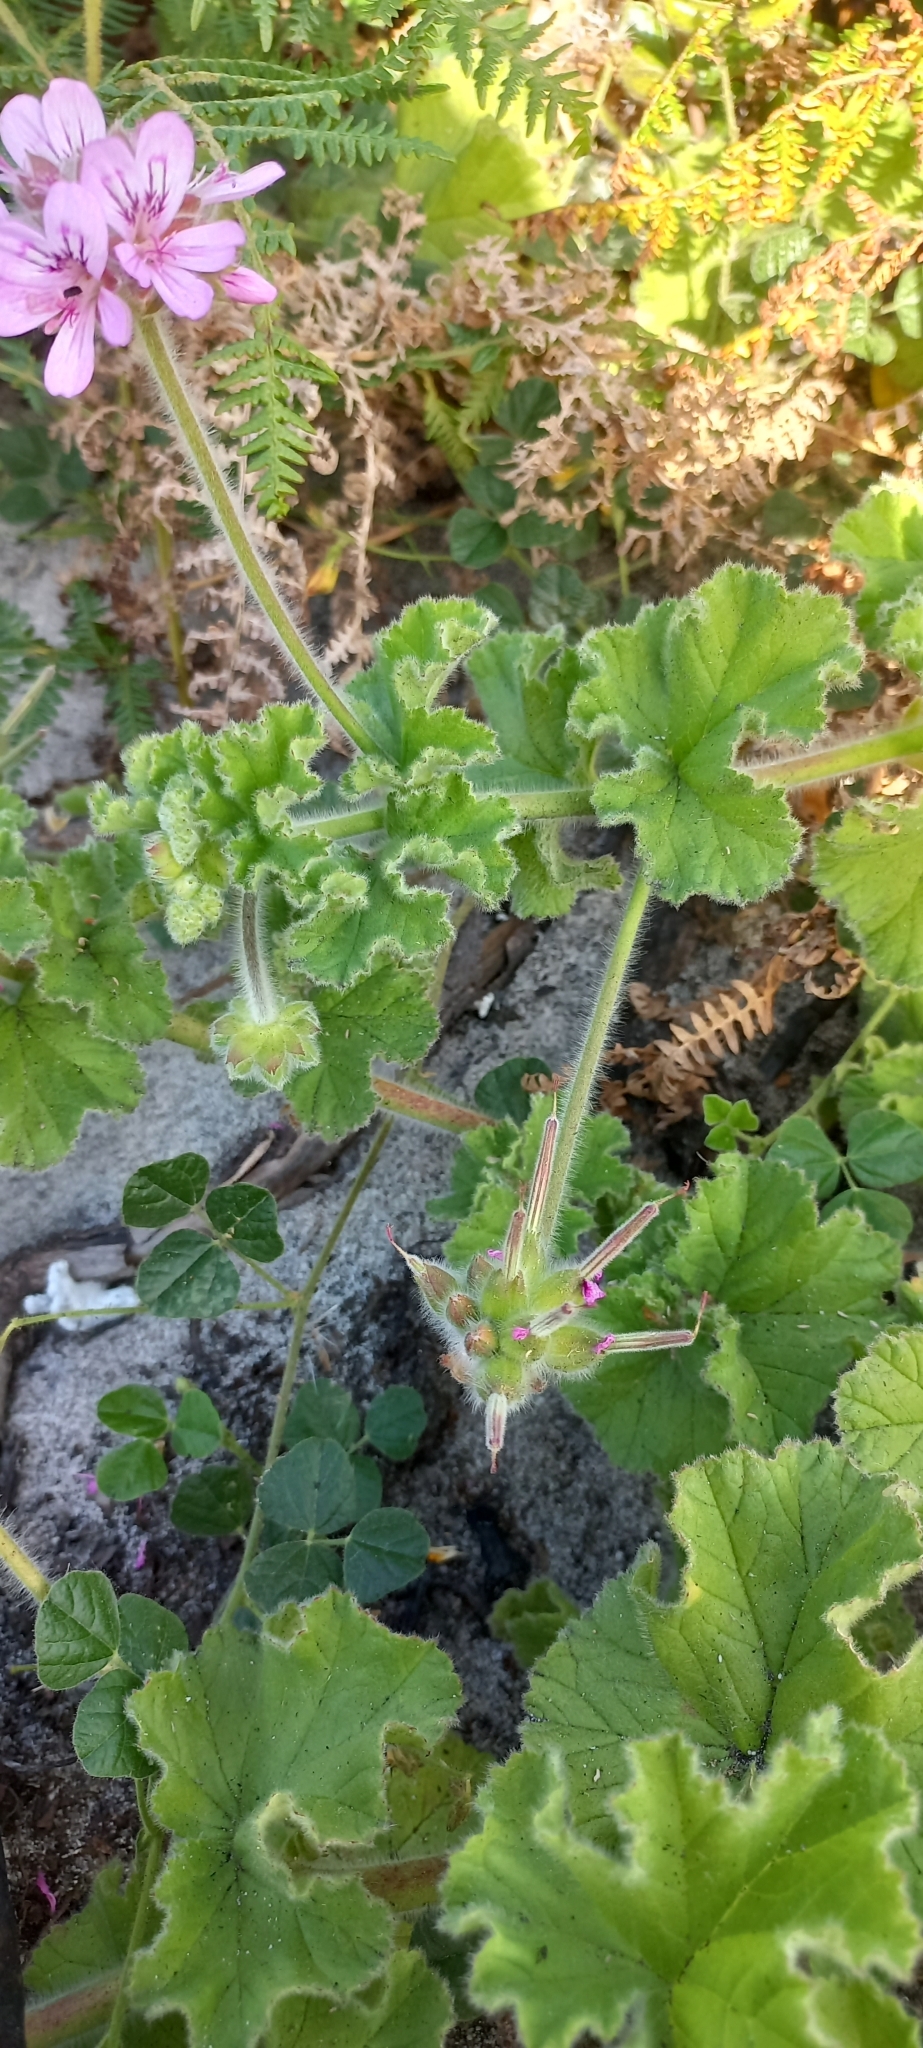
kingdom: Plantae
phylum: Tracheophyta
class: Magnoliopsida
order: Geraniales
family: Geraniaceae
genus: Pelargonium
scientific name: Pelargonium capitatum
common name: Rose scented geranium
